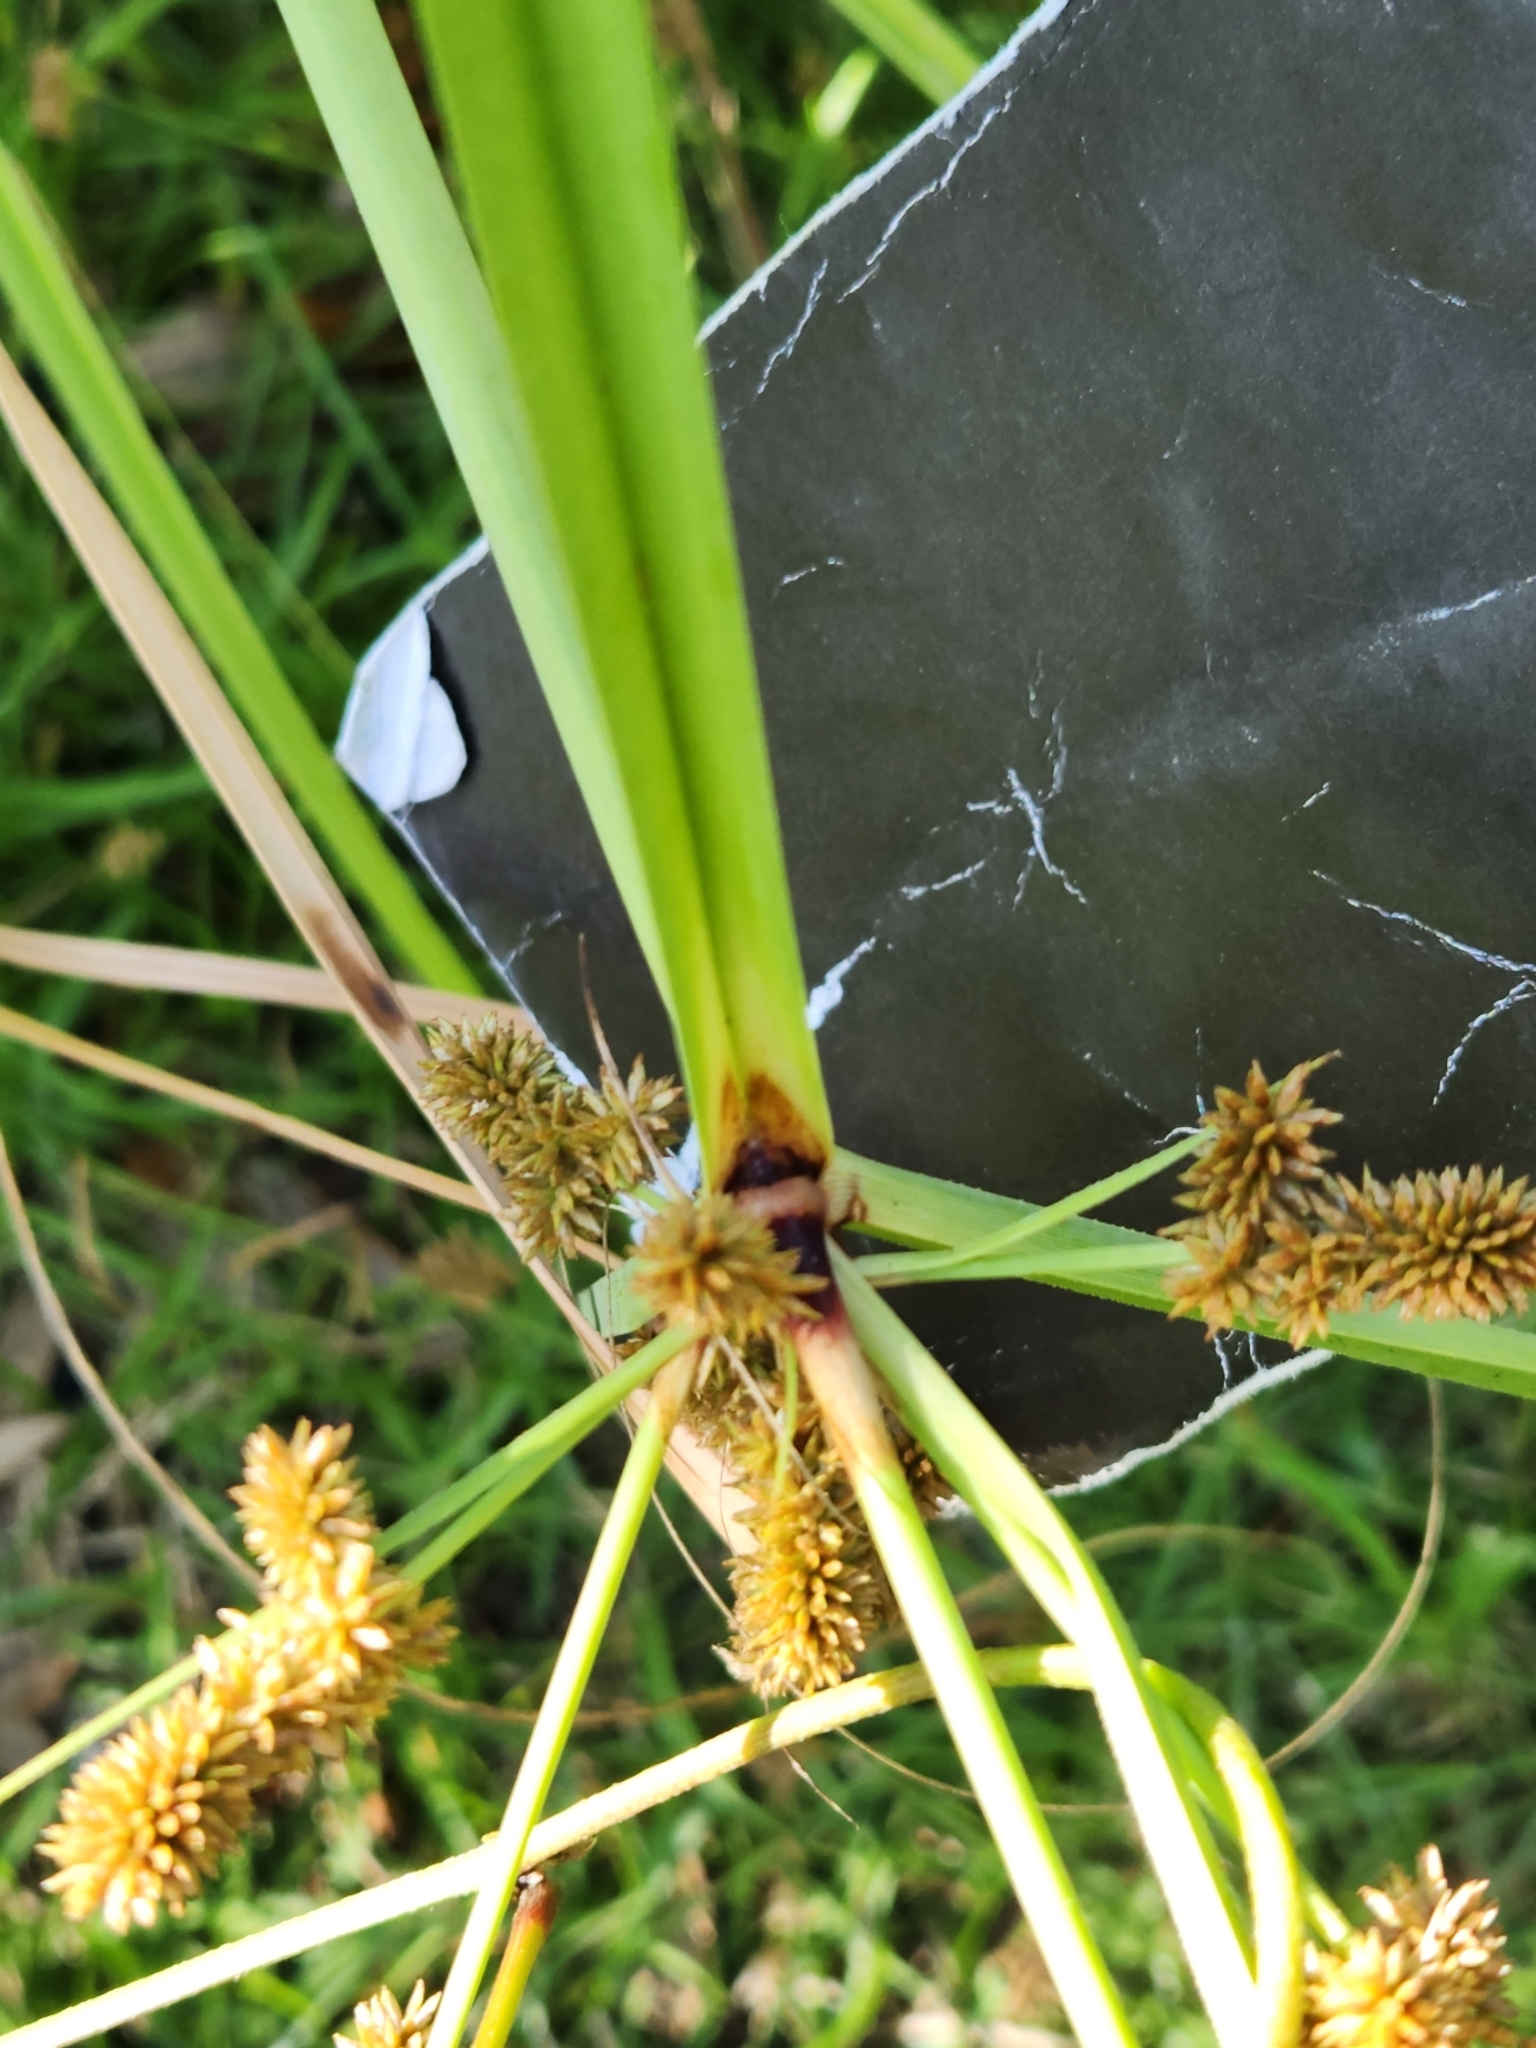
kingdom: Plantae
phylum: Tracheophyta
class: Liliopsida
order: Poales
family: Cyperaceae
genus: Cyperus
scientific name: Cyperus ligularis
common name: Swamp flat sedge
